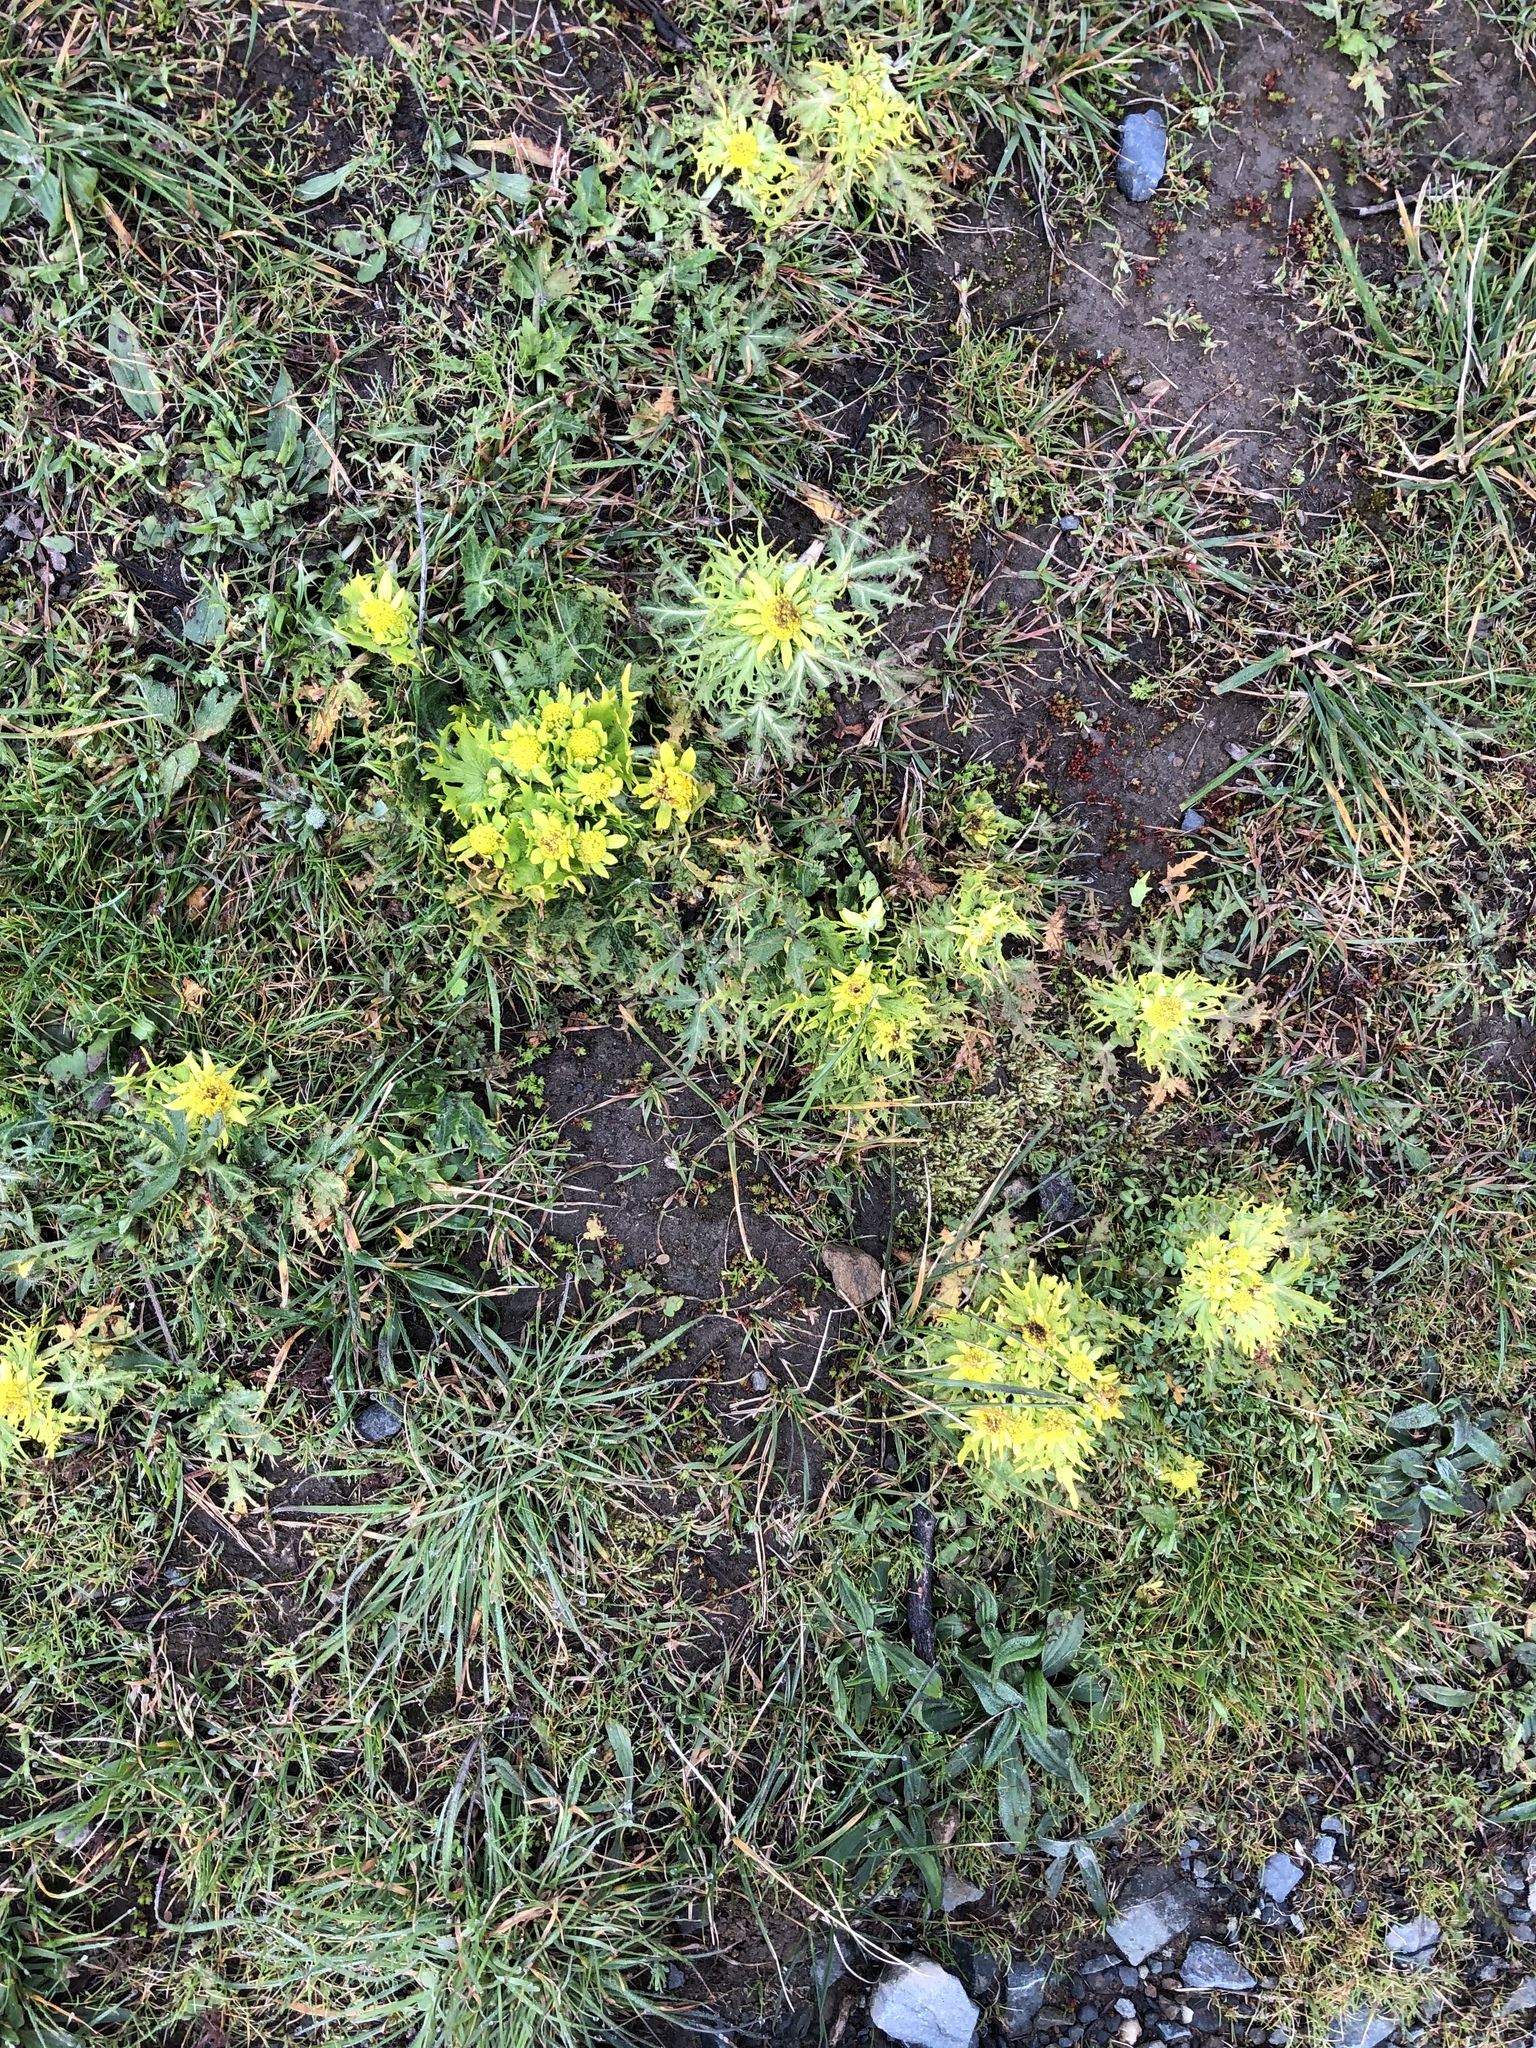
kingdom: Plantae
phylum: Tracheophyta
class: Magnoliopsida
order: Apiales
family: Apiaceae
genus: Sanicula
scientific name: Sanicula arctopoides
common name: Footsteps-of-spring
